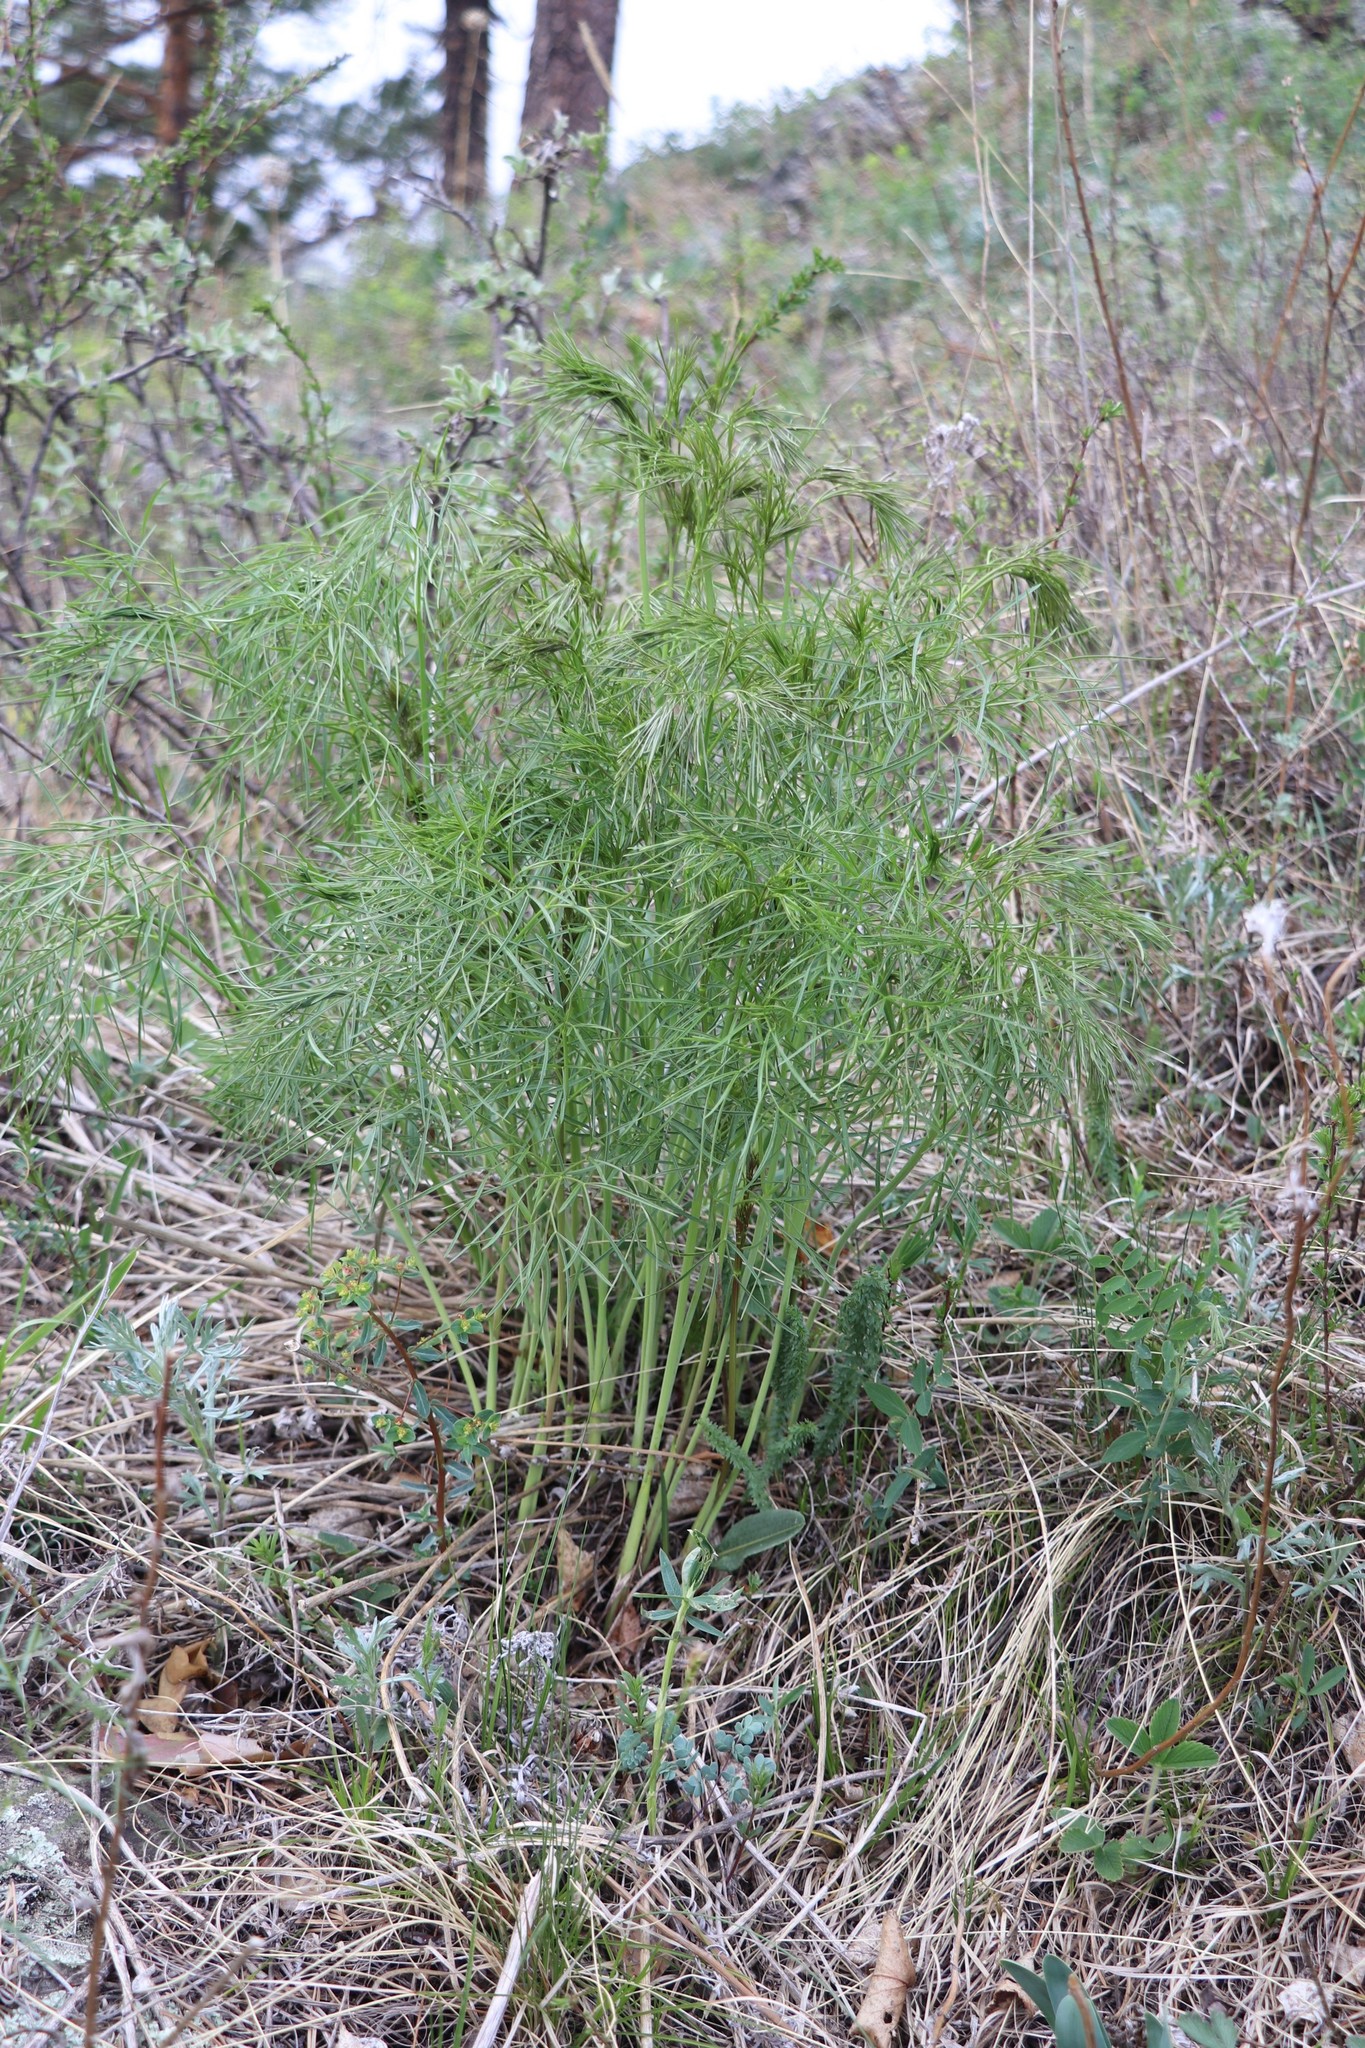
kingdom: Plantae
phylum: Tracheophyta
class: Magnoliopsida
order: Apiales
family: Apiaceae
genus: Peucedanum
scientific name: Peucedanum morisonii
